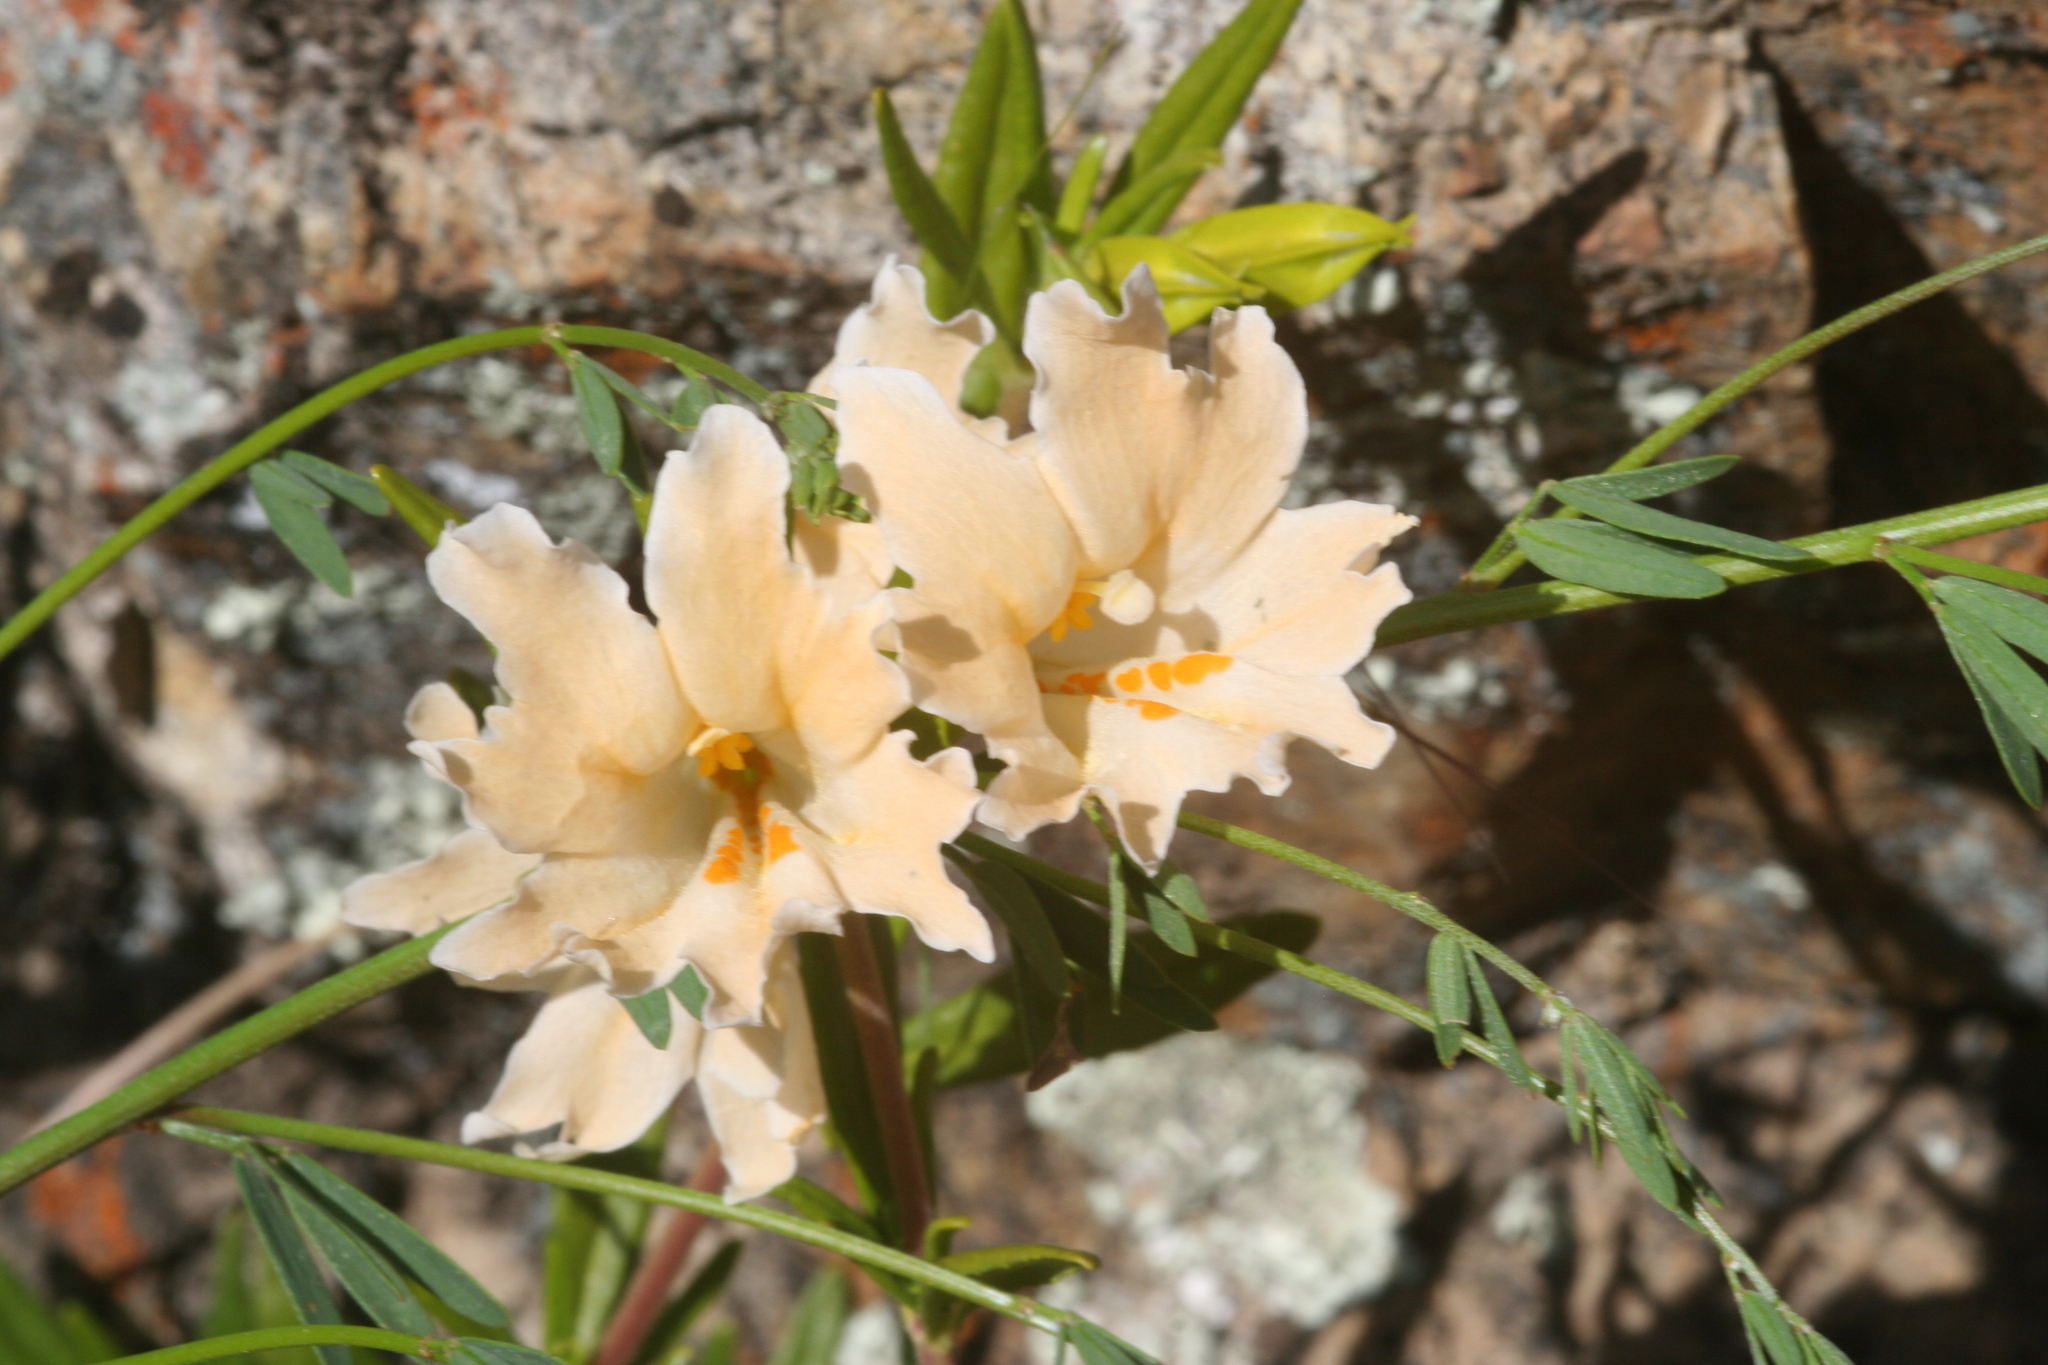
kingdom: Plantae
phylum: Tracheophyta
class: Magnoliopsida
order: Lamiales
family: Phrymaceae
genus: Diplacus
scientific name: Diplacus linearis
